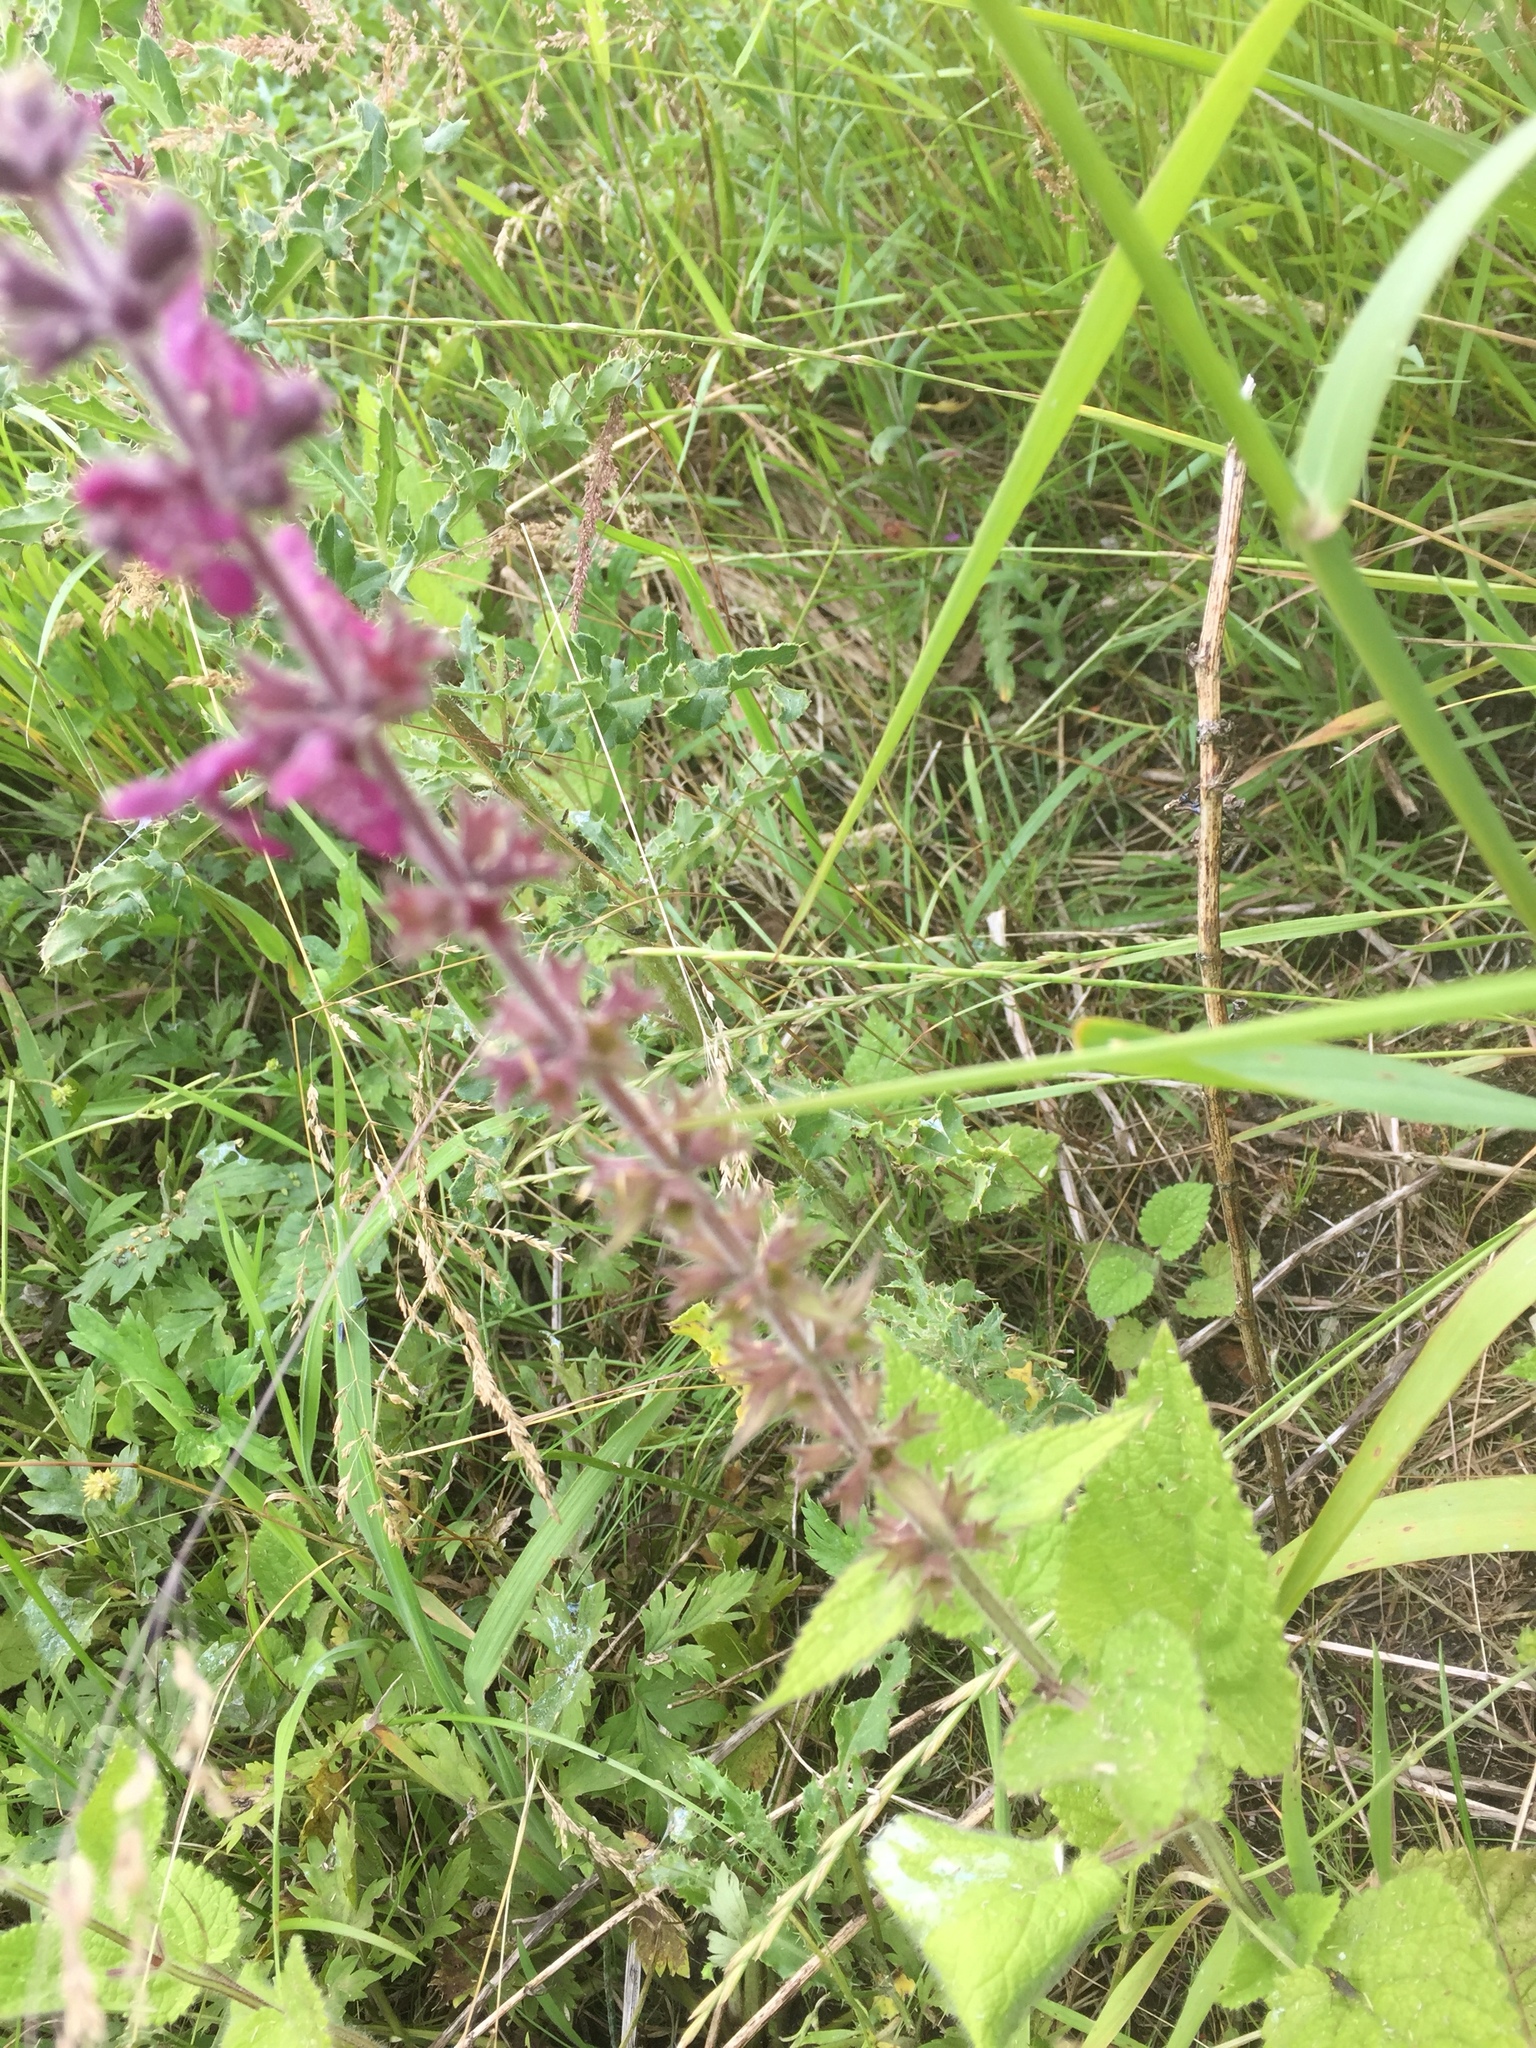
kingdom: Plantae
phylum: Tracheophyta
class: Magnoliopsida
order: Lamiales
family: Lamiaceae
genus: Stachys
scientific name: Stachys sylvatica
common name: Hedge woundwort
